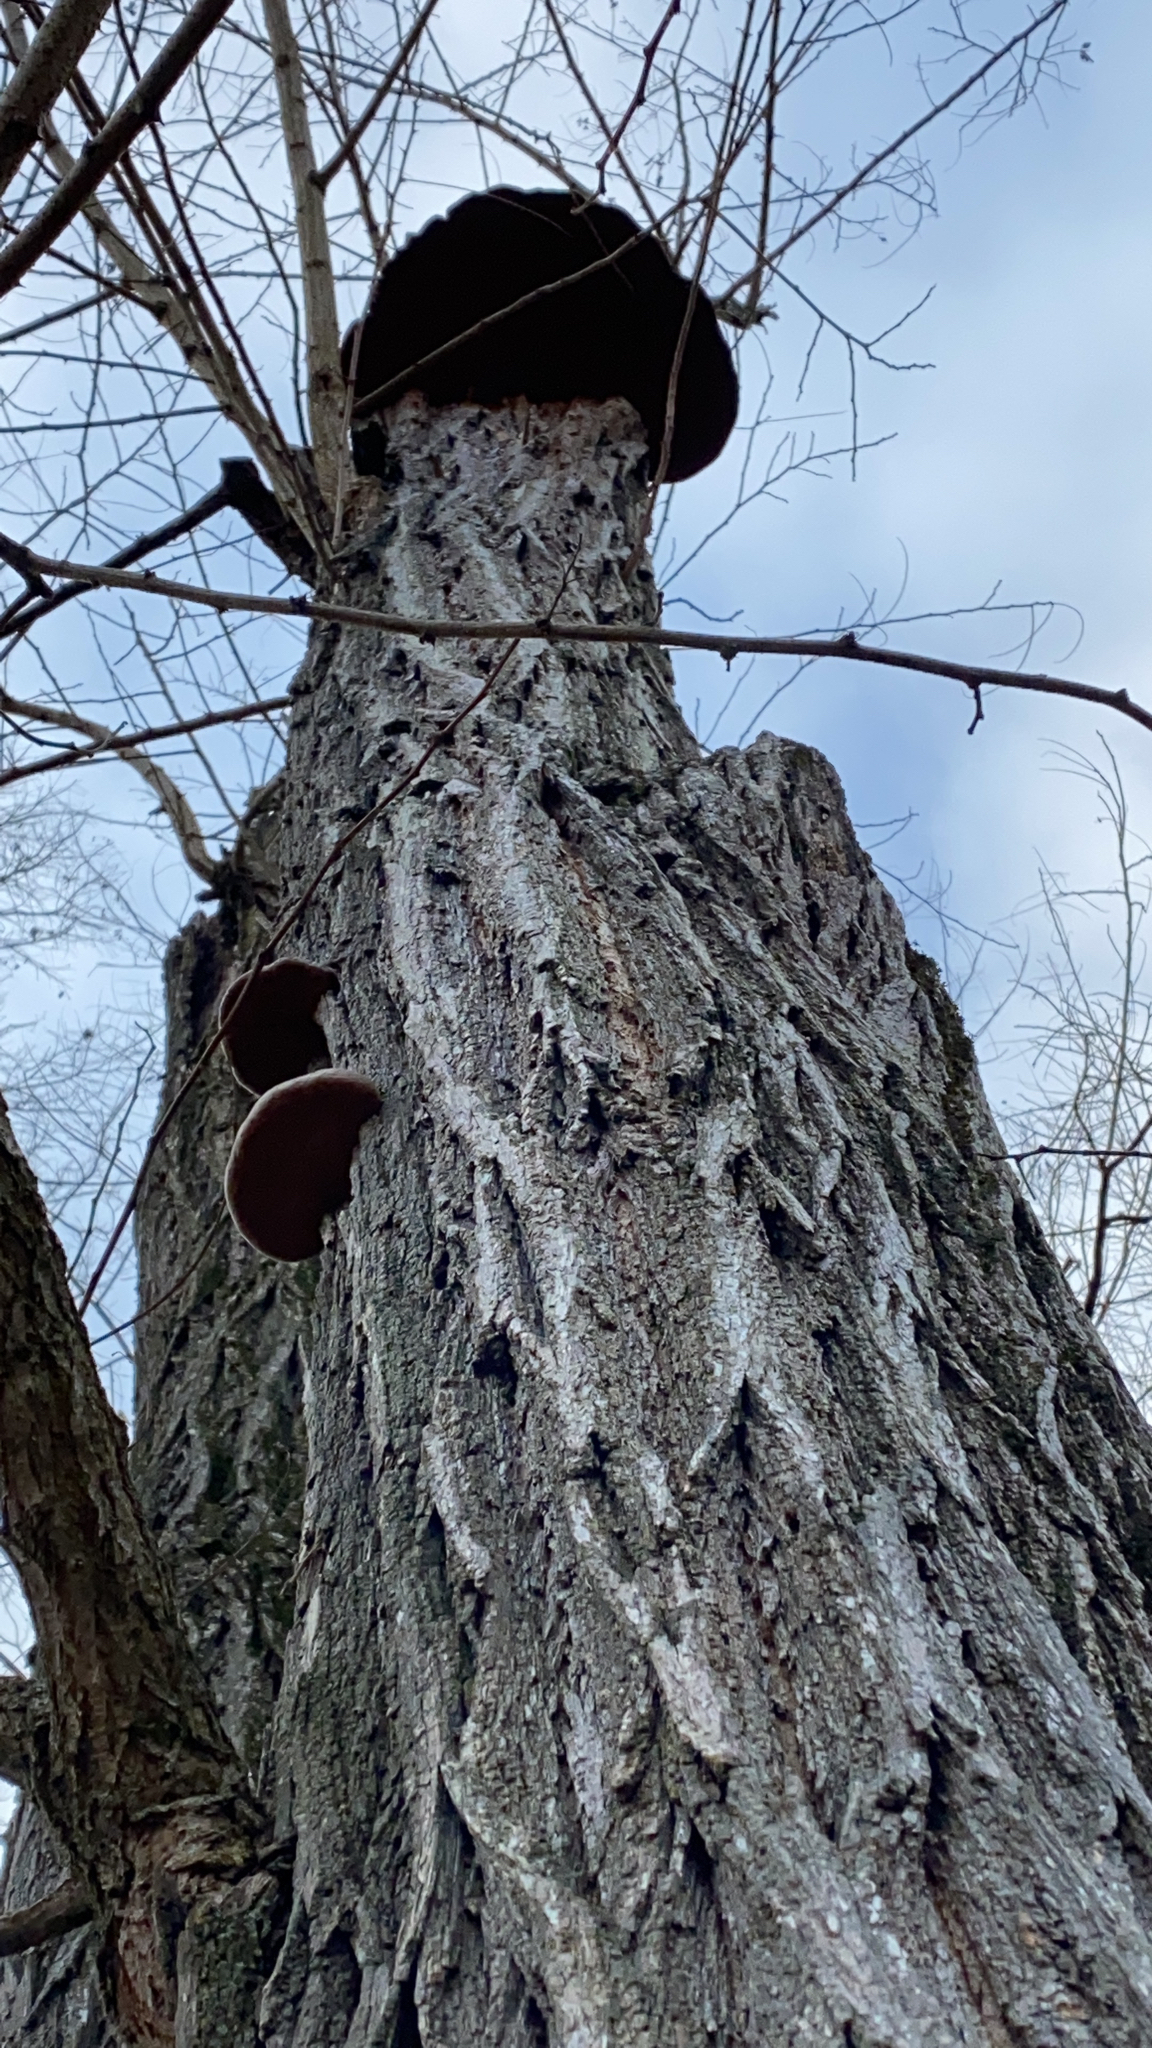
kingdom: Fungi
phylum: Basidiomycota
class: Agaricomycetes
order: Hymenochaetales
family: Hymenochaetaceae
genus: Phellinus
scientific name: Phellinus robiniae
